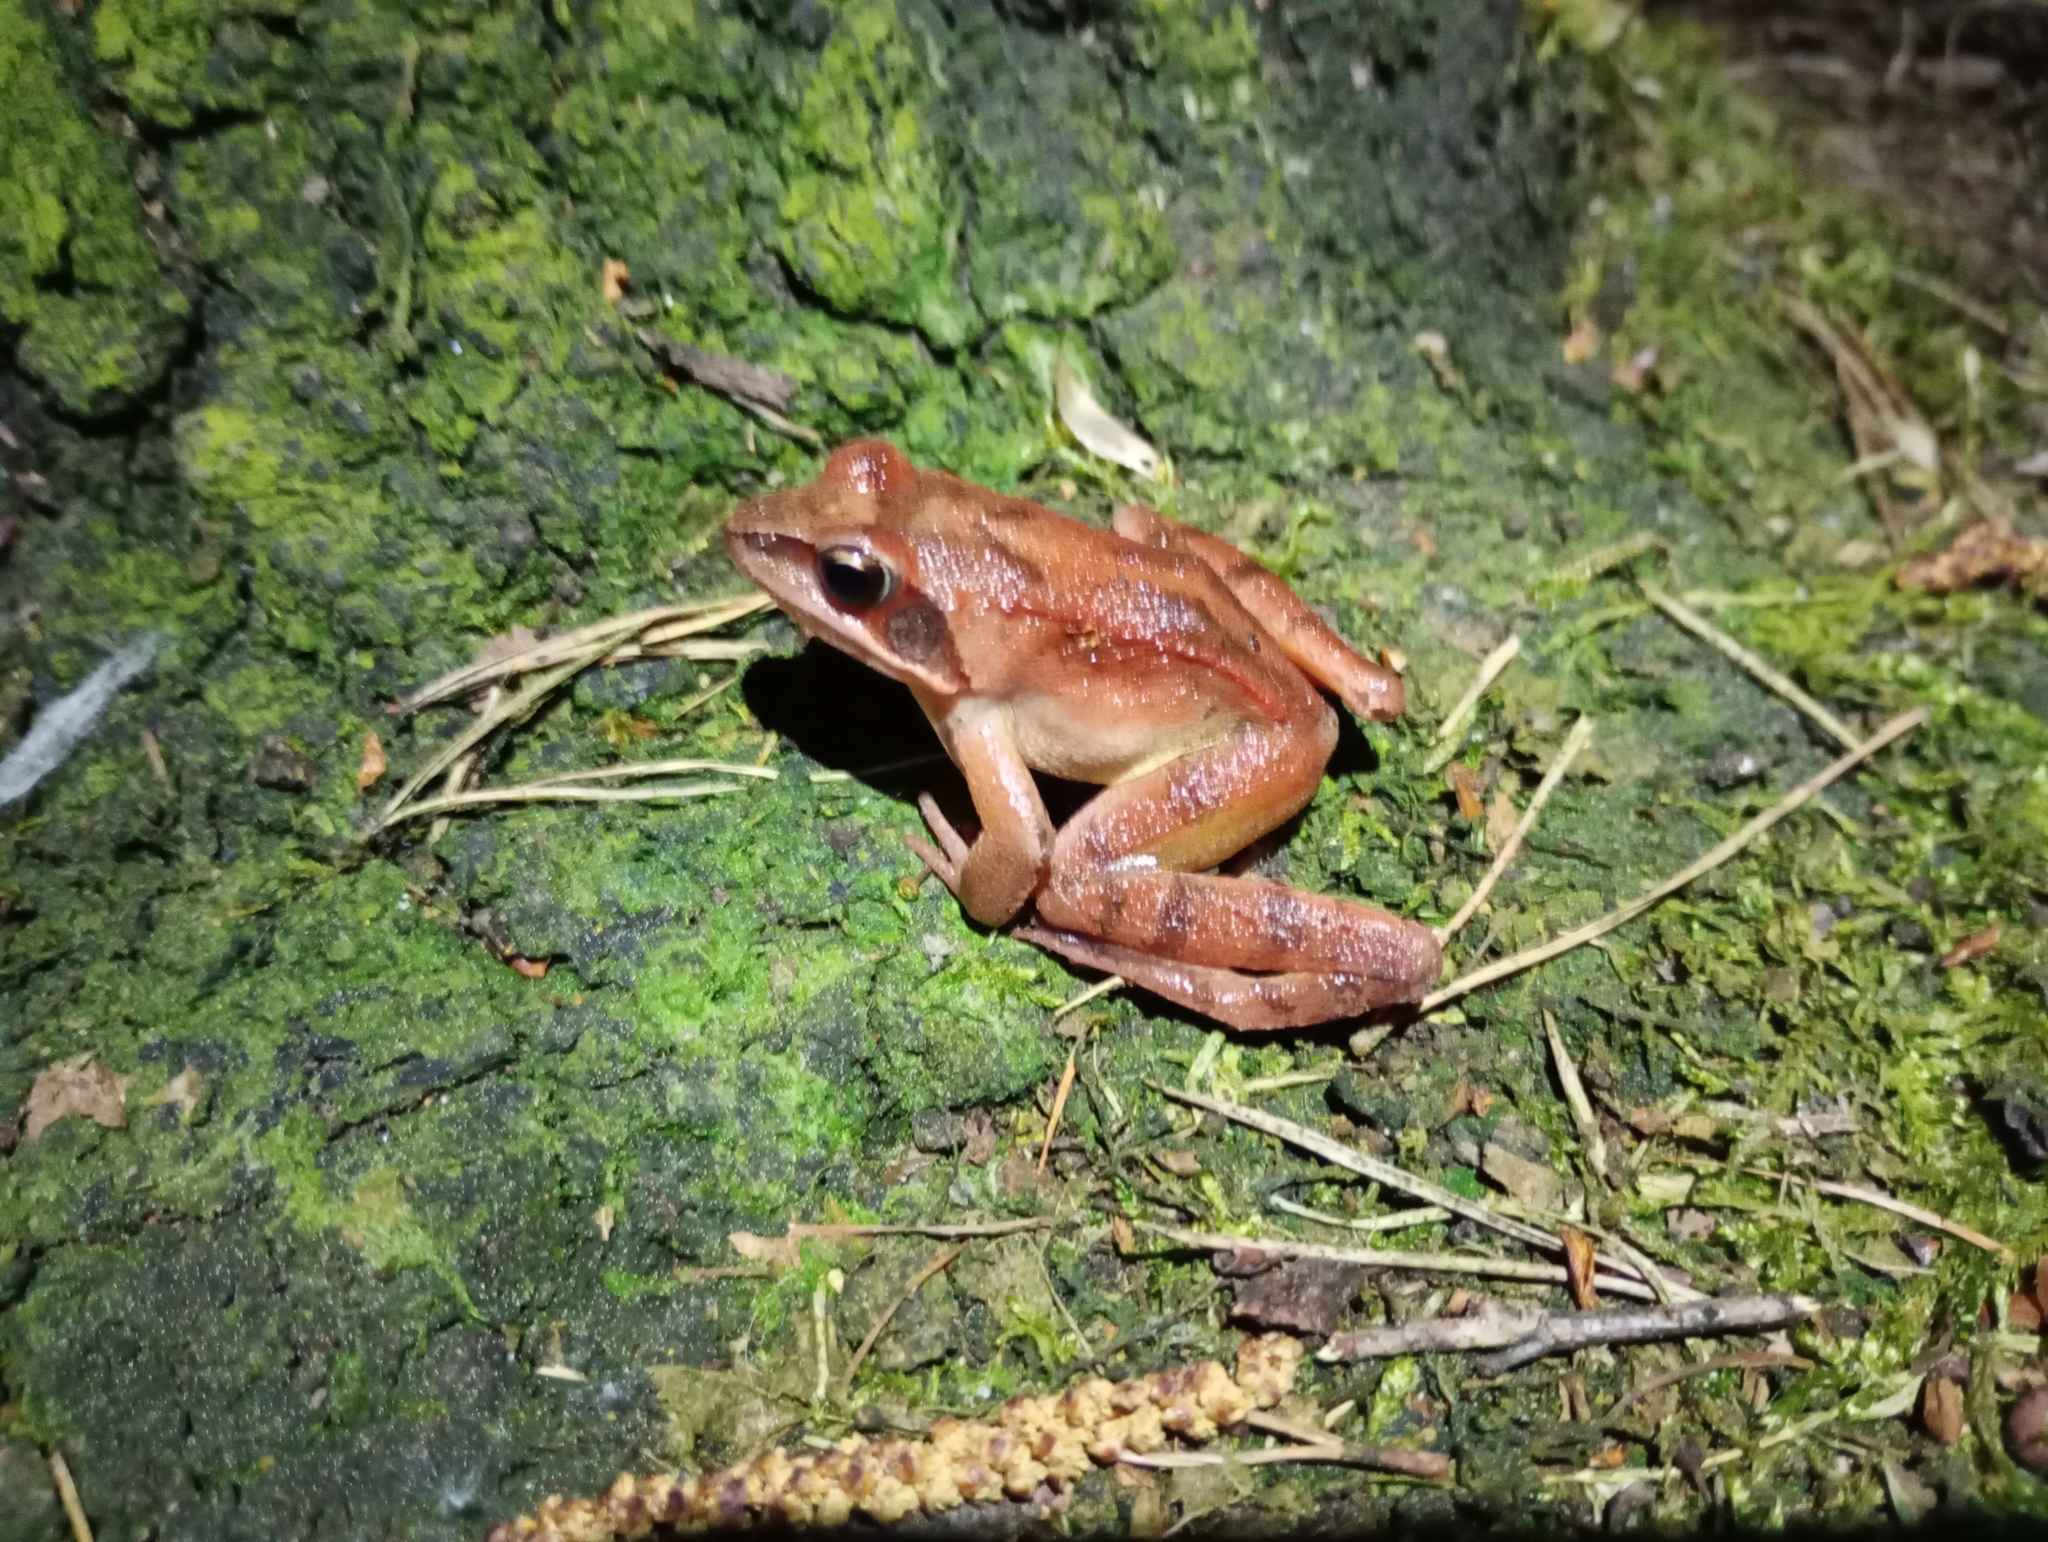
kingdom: Animalia
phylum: Chordata
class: Amphibia
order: Anura
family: Ranidae
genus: Rana
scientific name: Rana dalmatina
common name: Agile frog
